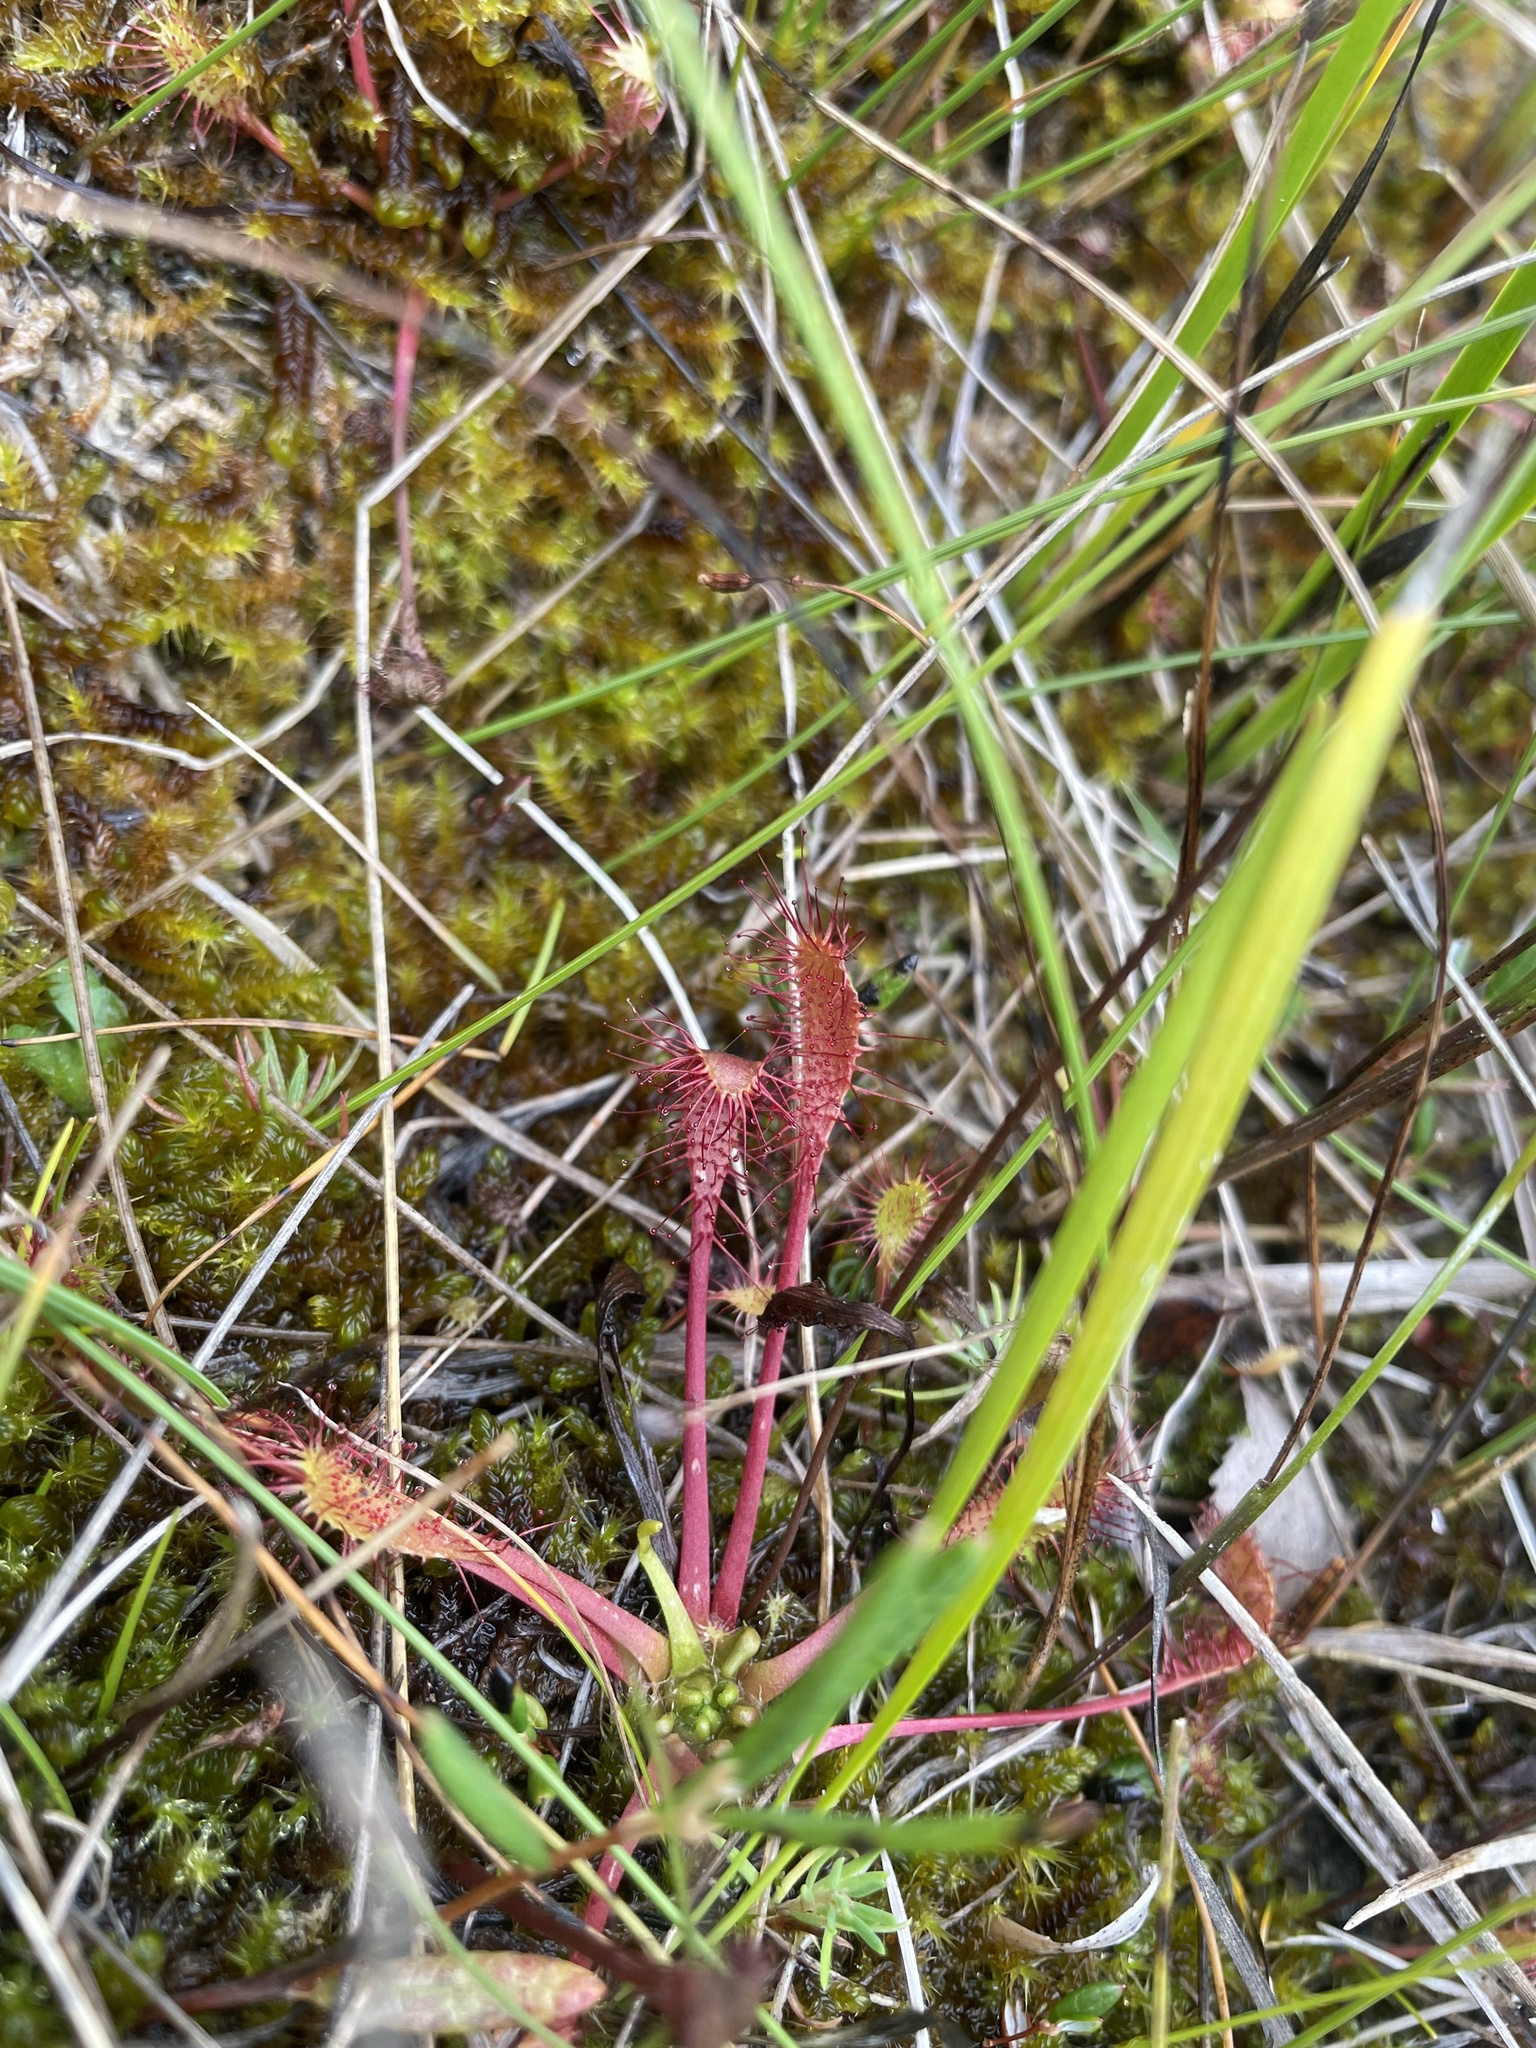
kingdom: Plantae
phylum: Tracheophyta
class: Magnoliopsida
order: Caryophyllales
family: Droseraceae
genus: Drosera
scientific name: Drosera anglica
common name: Great sundew
